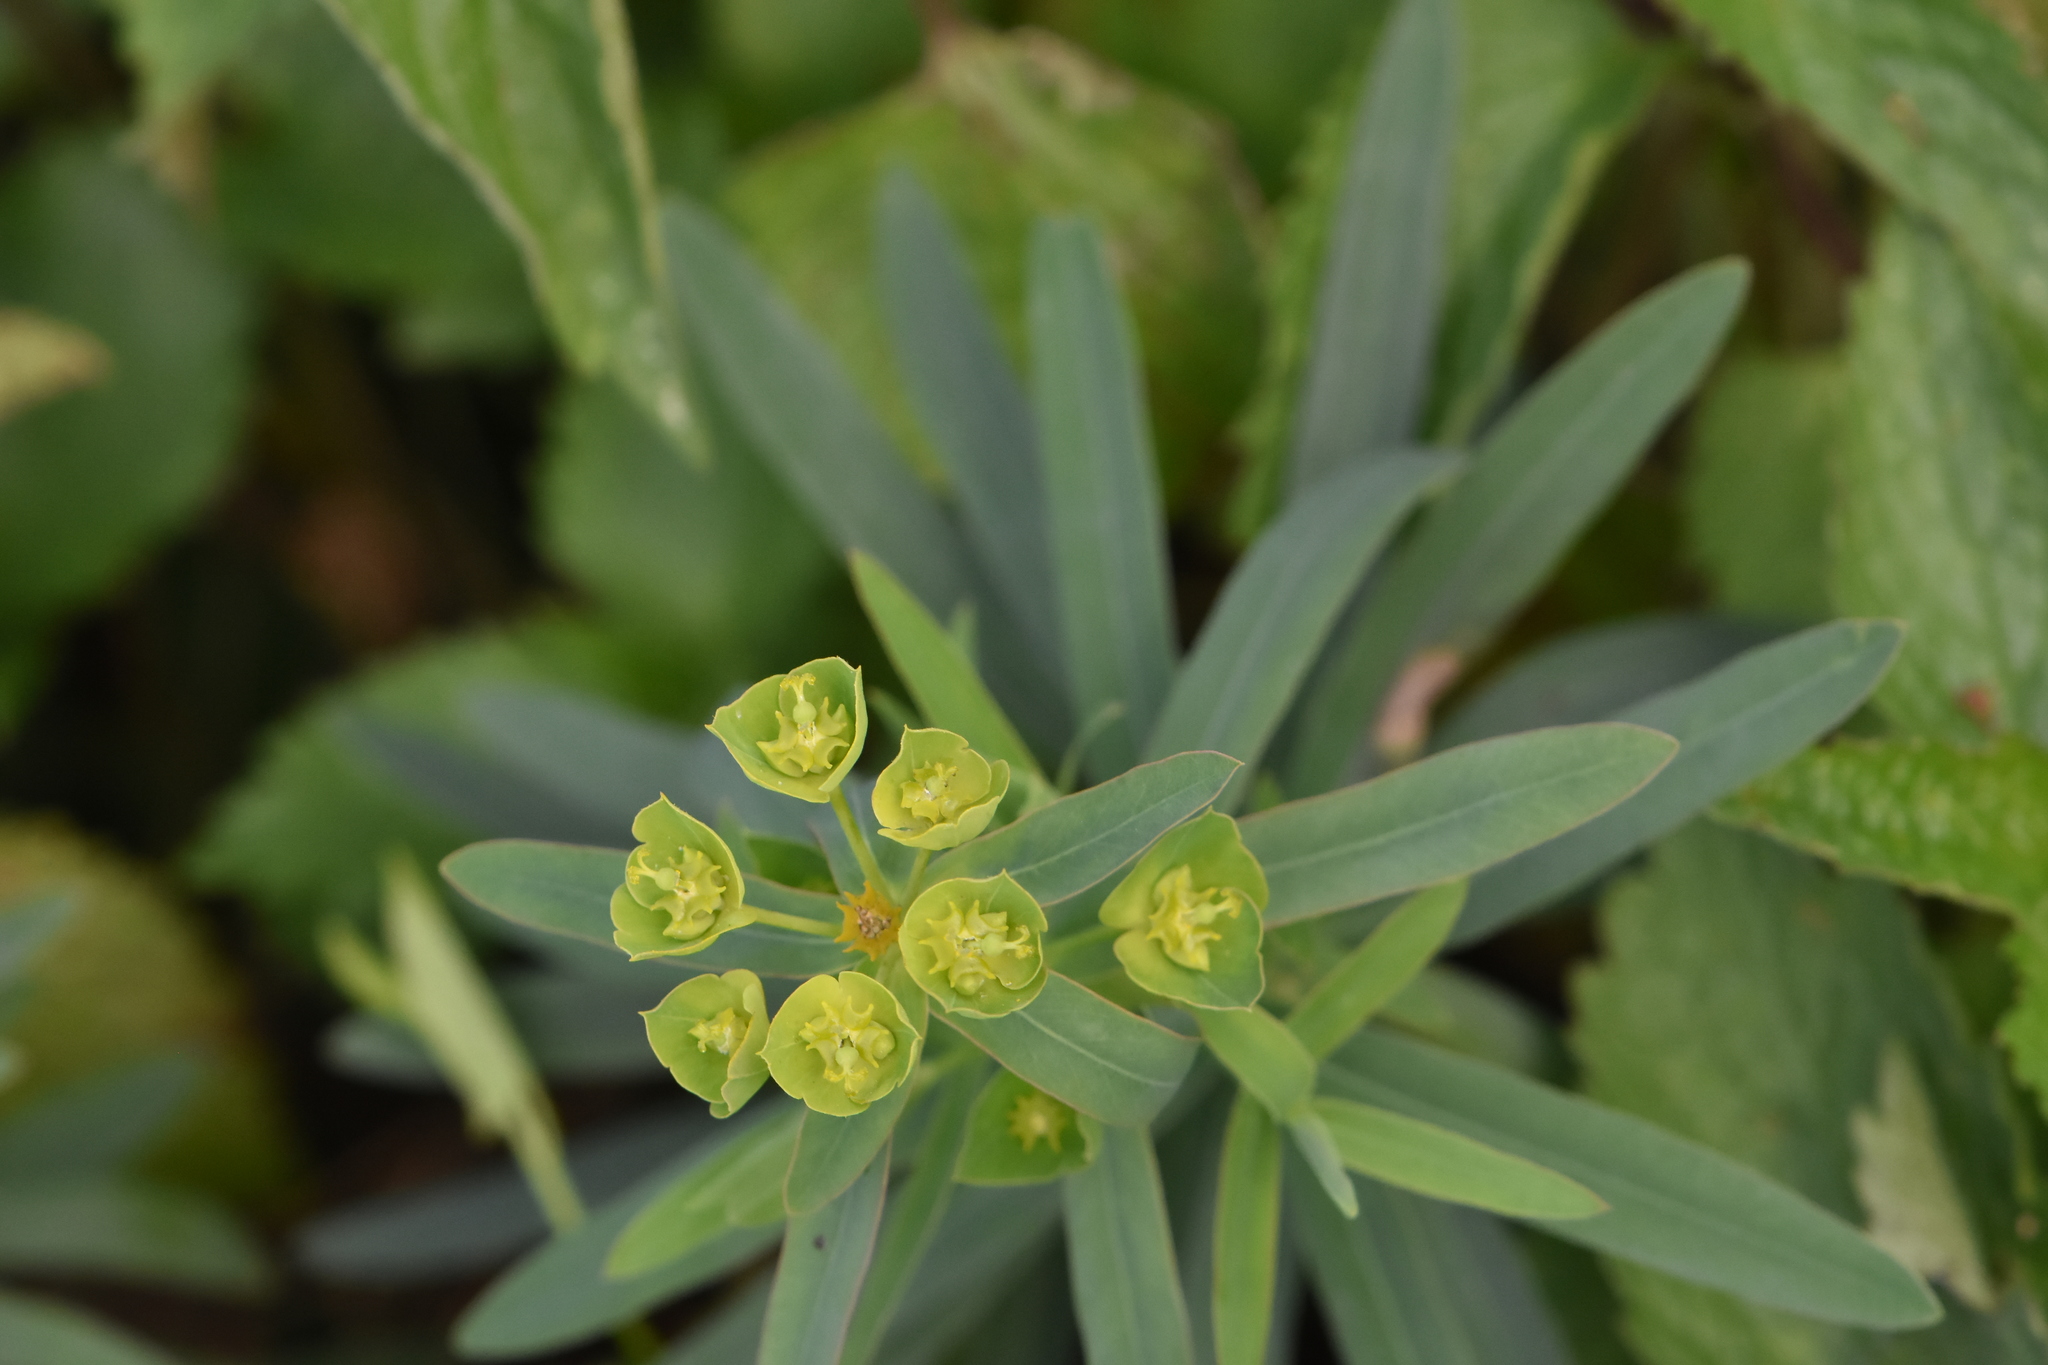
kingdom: Plantae
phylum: Tracheophyta
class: Magnoliopsida
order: Malpighiales
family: Euphorbiaceae
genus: Euphorbia
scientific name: Euphorbia virgata
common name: Leafy spurge
